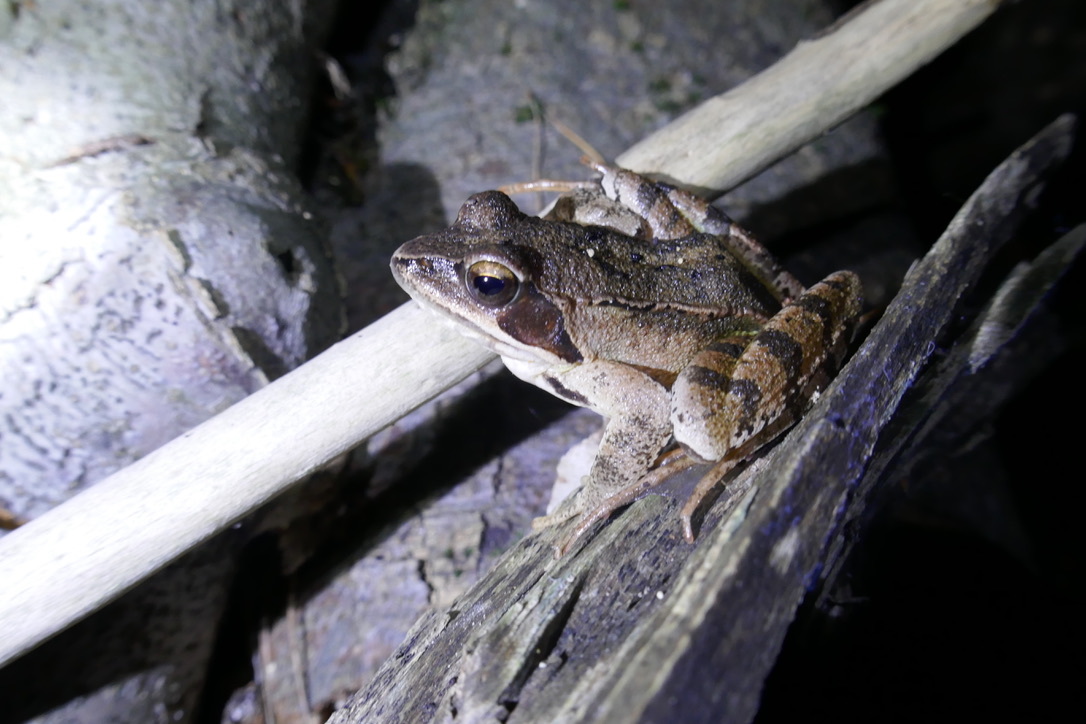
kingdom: Animalia
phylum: Chordata
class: Amphibia
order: Anura
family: Ranidae
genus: Rana
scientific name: Rana dalmatina
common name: Agile frog
